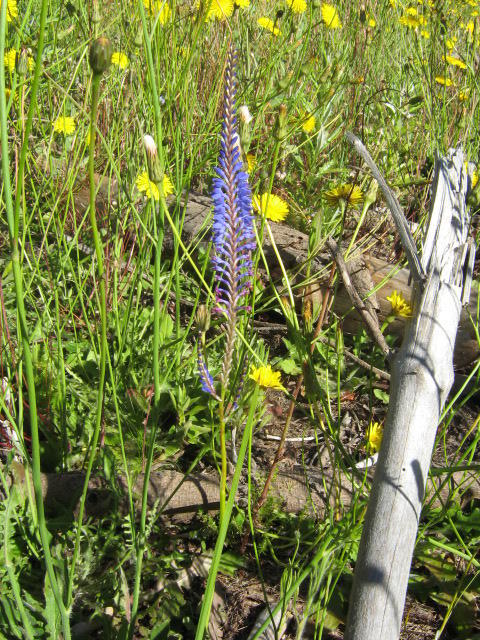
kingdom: Plantae
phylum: Tracheophyta
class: Liliopsida
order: Asparagales
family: Iridaceae
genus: Micranthus
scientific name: Micranthus alopecuroides
